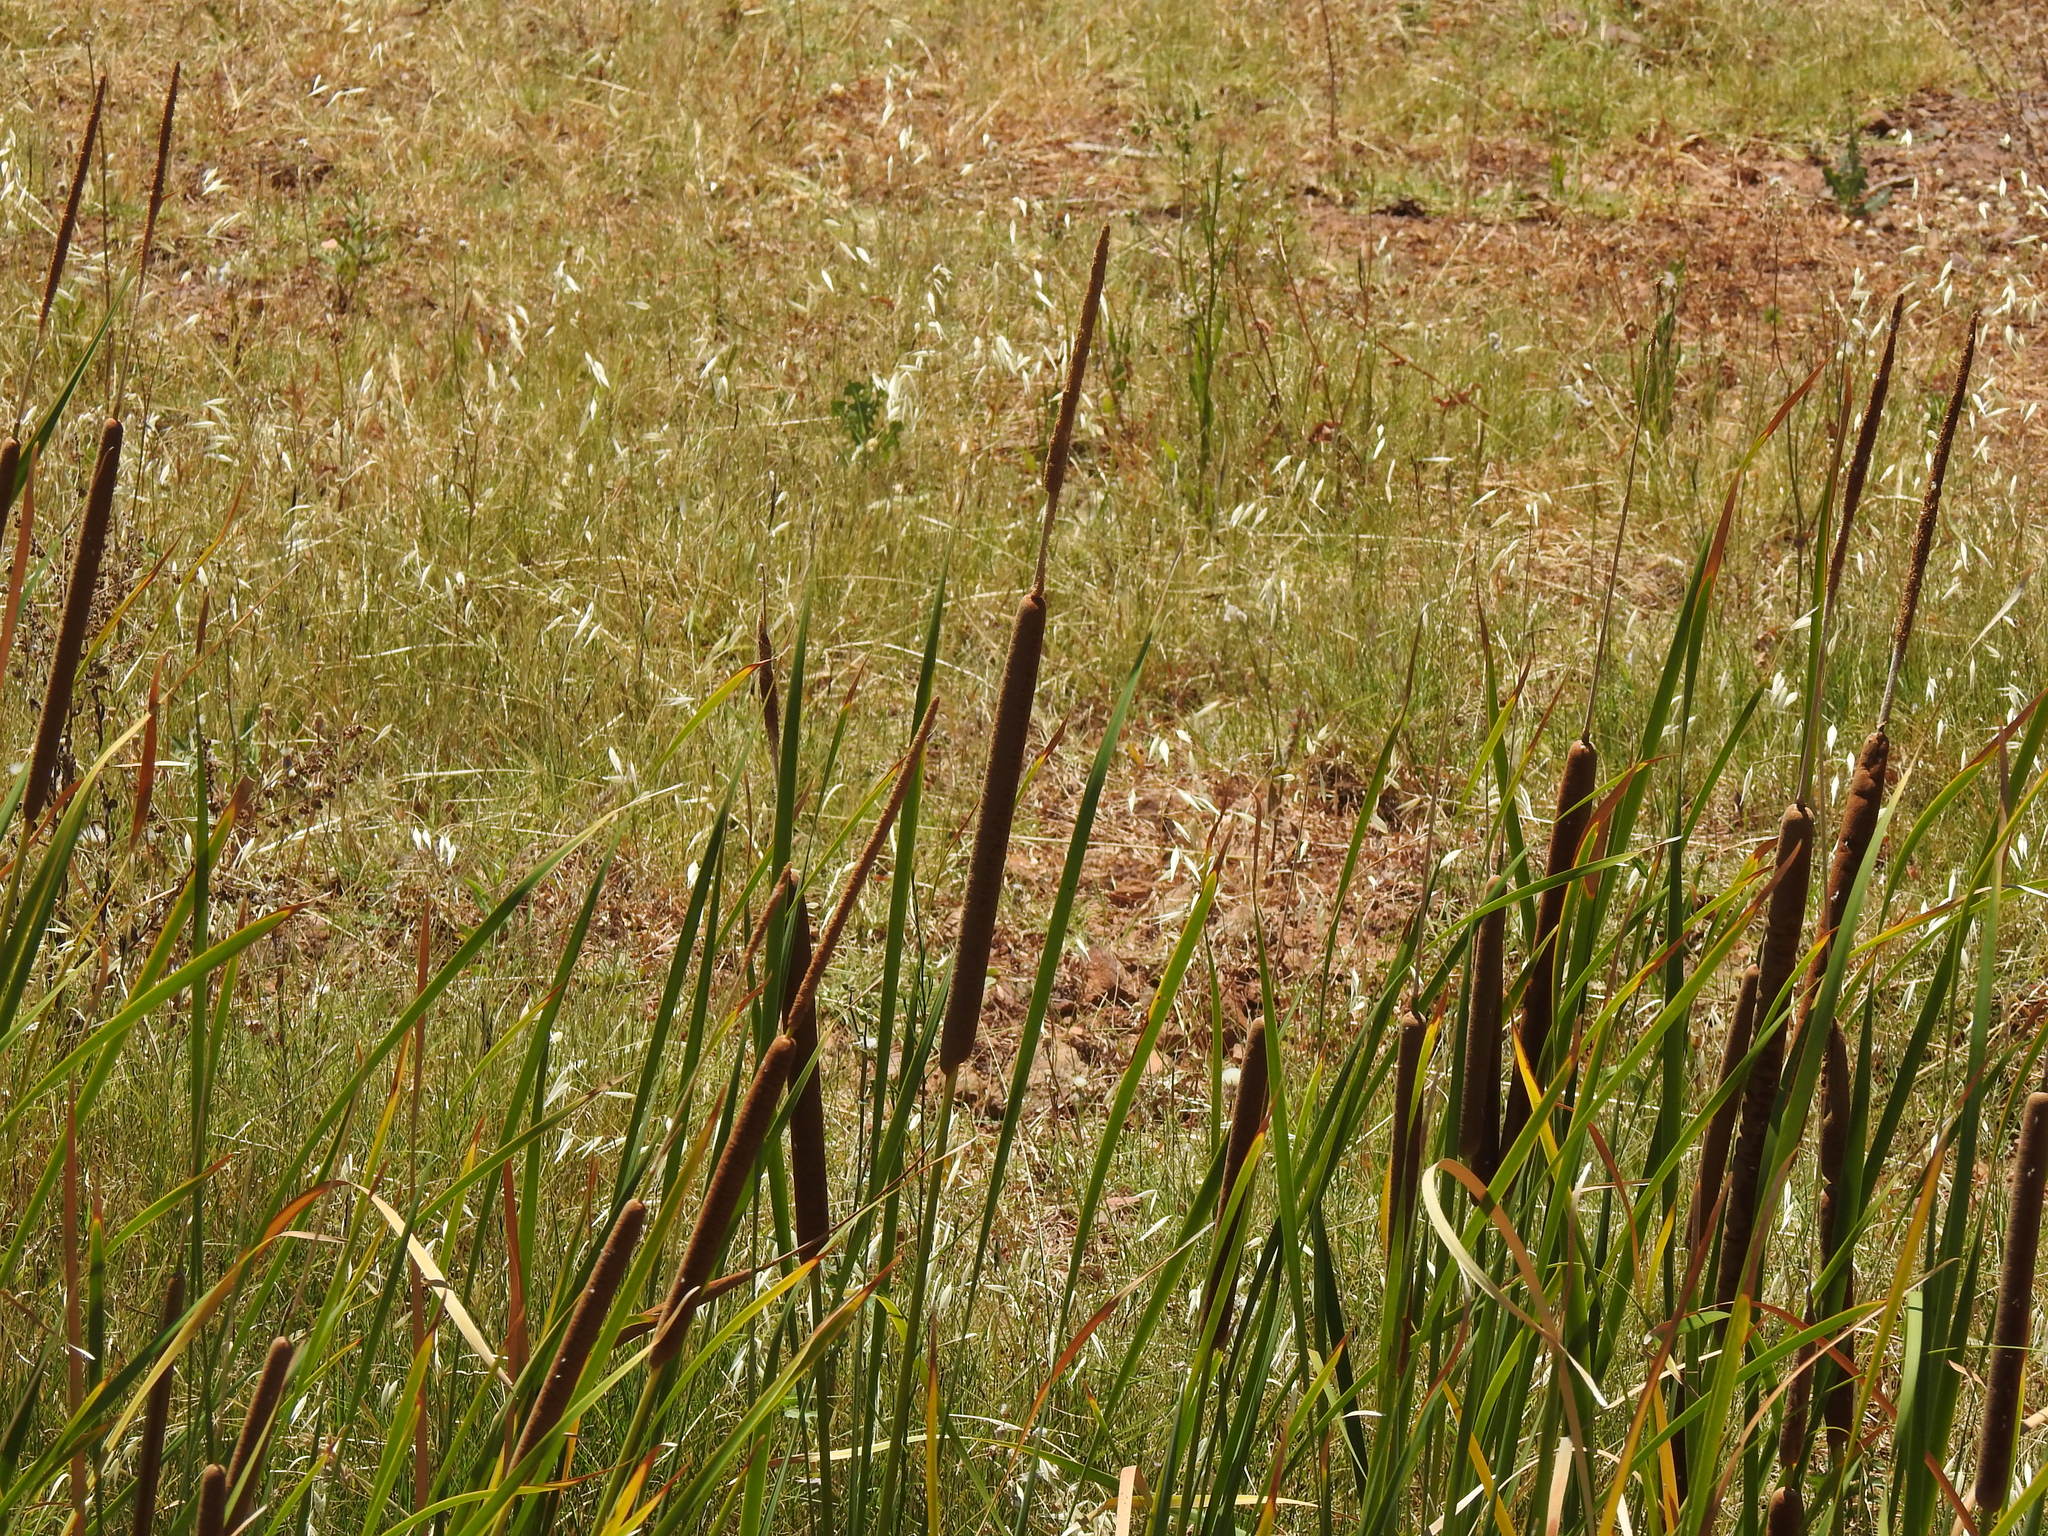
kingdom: Plantae
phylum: Tracheophyta
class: Liliopsida
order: Poales
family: Typhaceae
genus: Typha
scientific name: Typha domingensis
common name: Southern cattail
